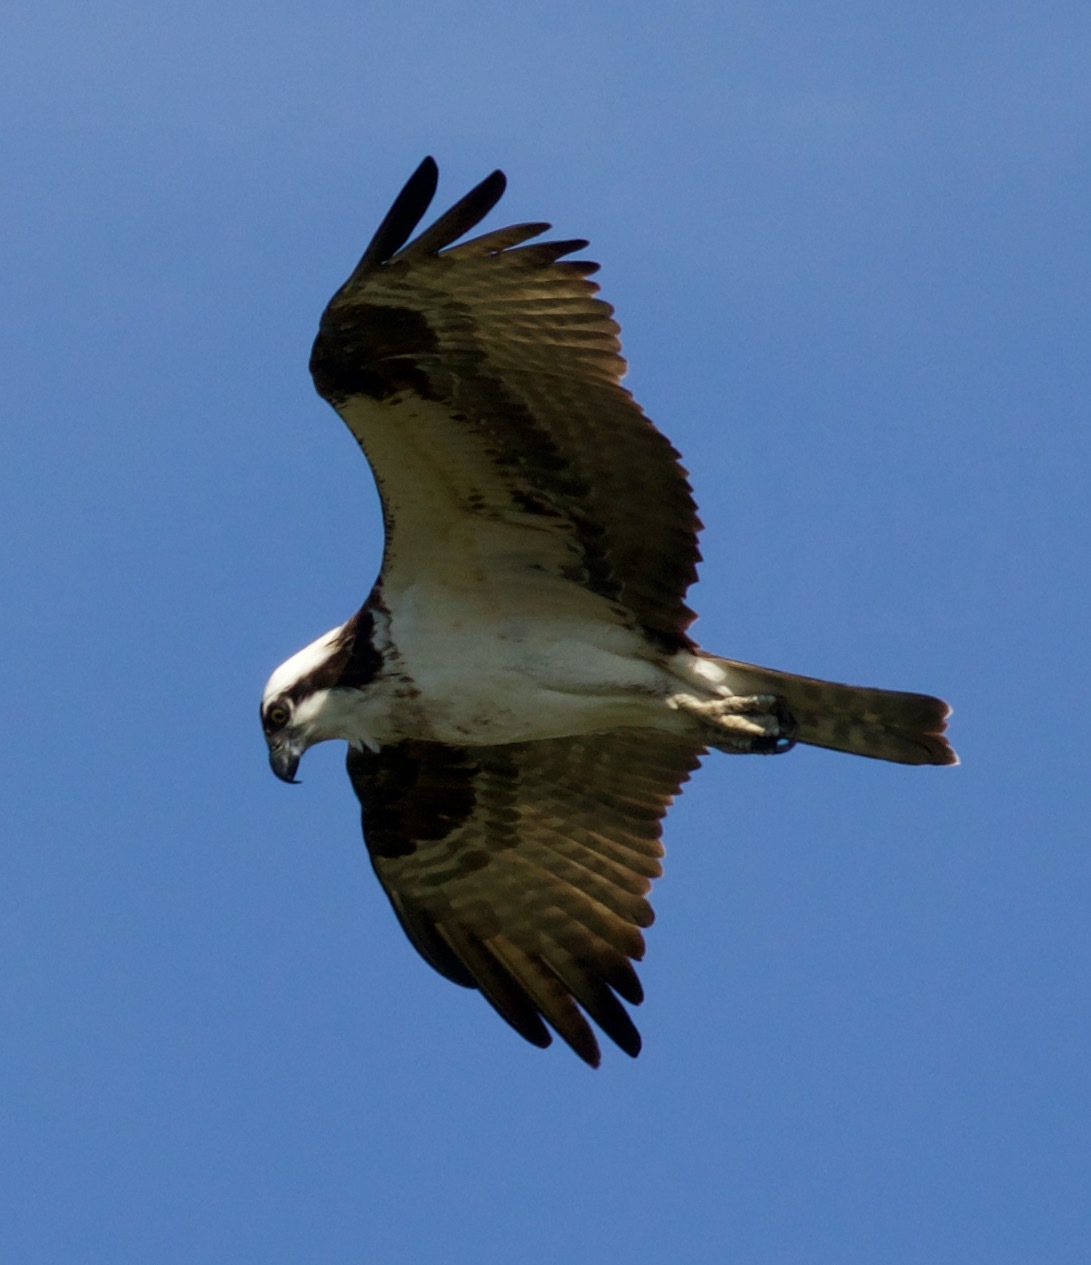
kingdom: Animalia
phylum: Chordata
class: Aves
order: Accipitriformes
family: Pandionidae
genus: Pandion
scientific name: Pandion haliaetus
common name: Osprey
